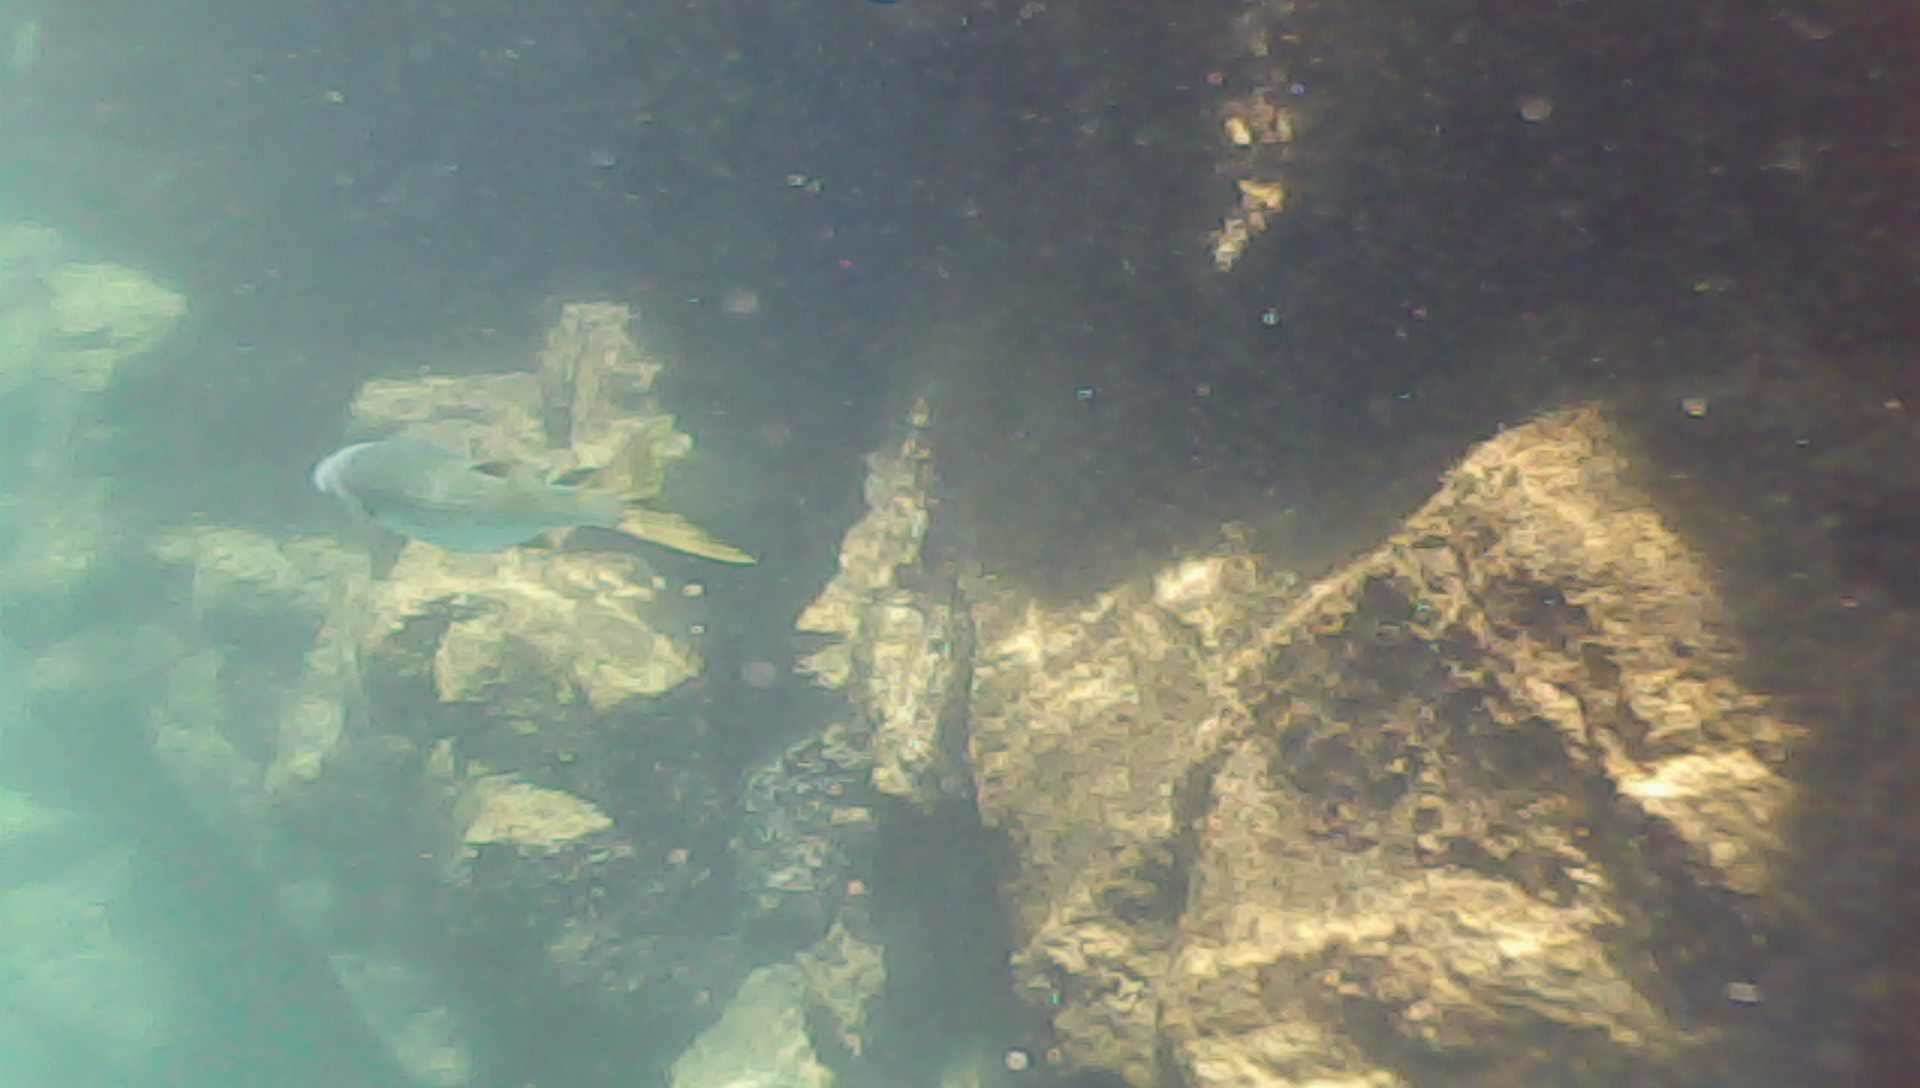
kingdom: Animalia
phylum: Chordata
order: Mugiliformes
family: Mugilidae
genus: Mugil
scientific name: Mugil cephalus
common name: Grey mullet
